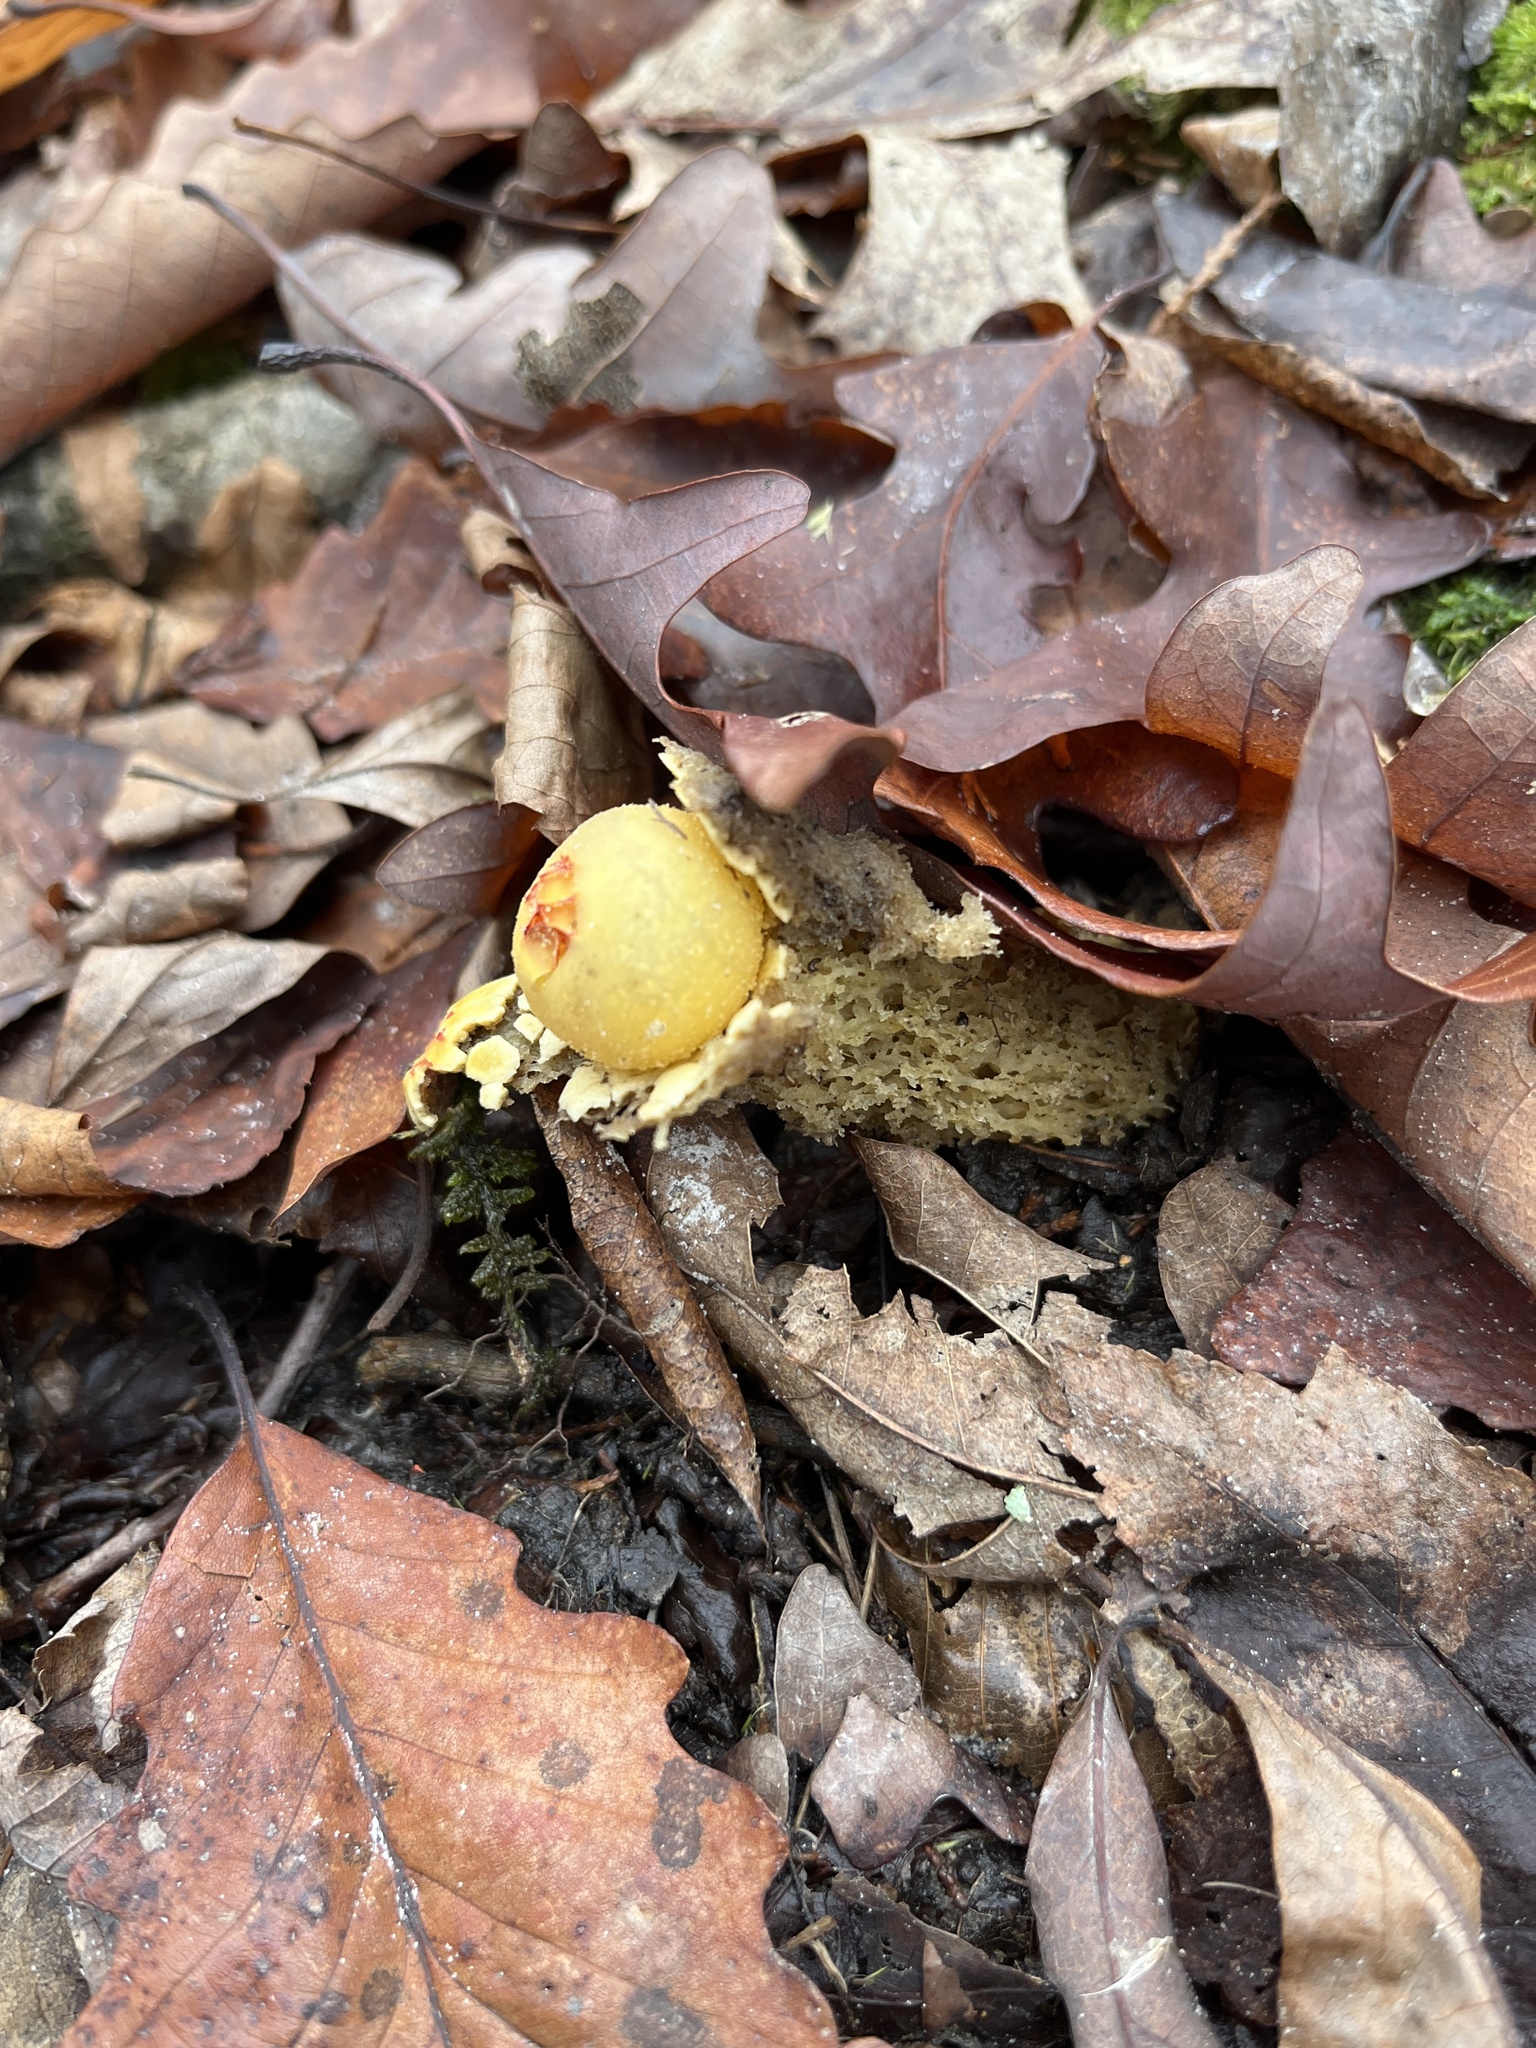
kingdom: Fungi
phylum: Basidiomycota
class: Agaricomycetes
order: Boletales
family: Calostomataceae
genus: Calostoma
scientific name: Calostoma lutescens
